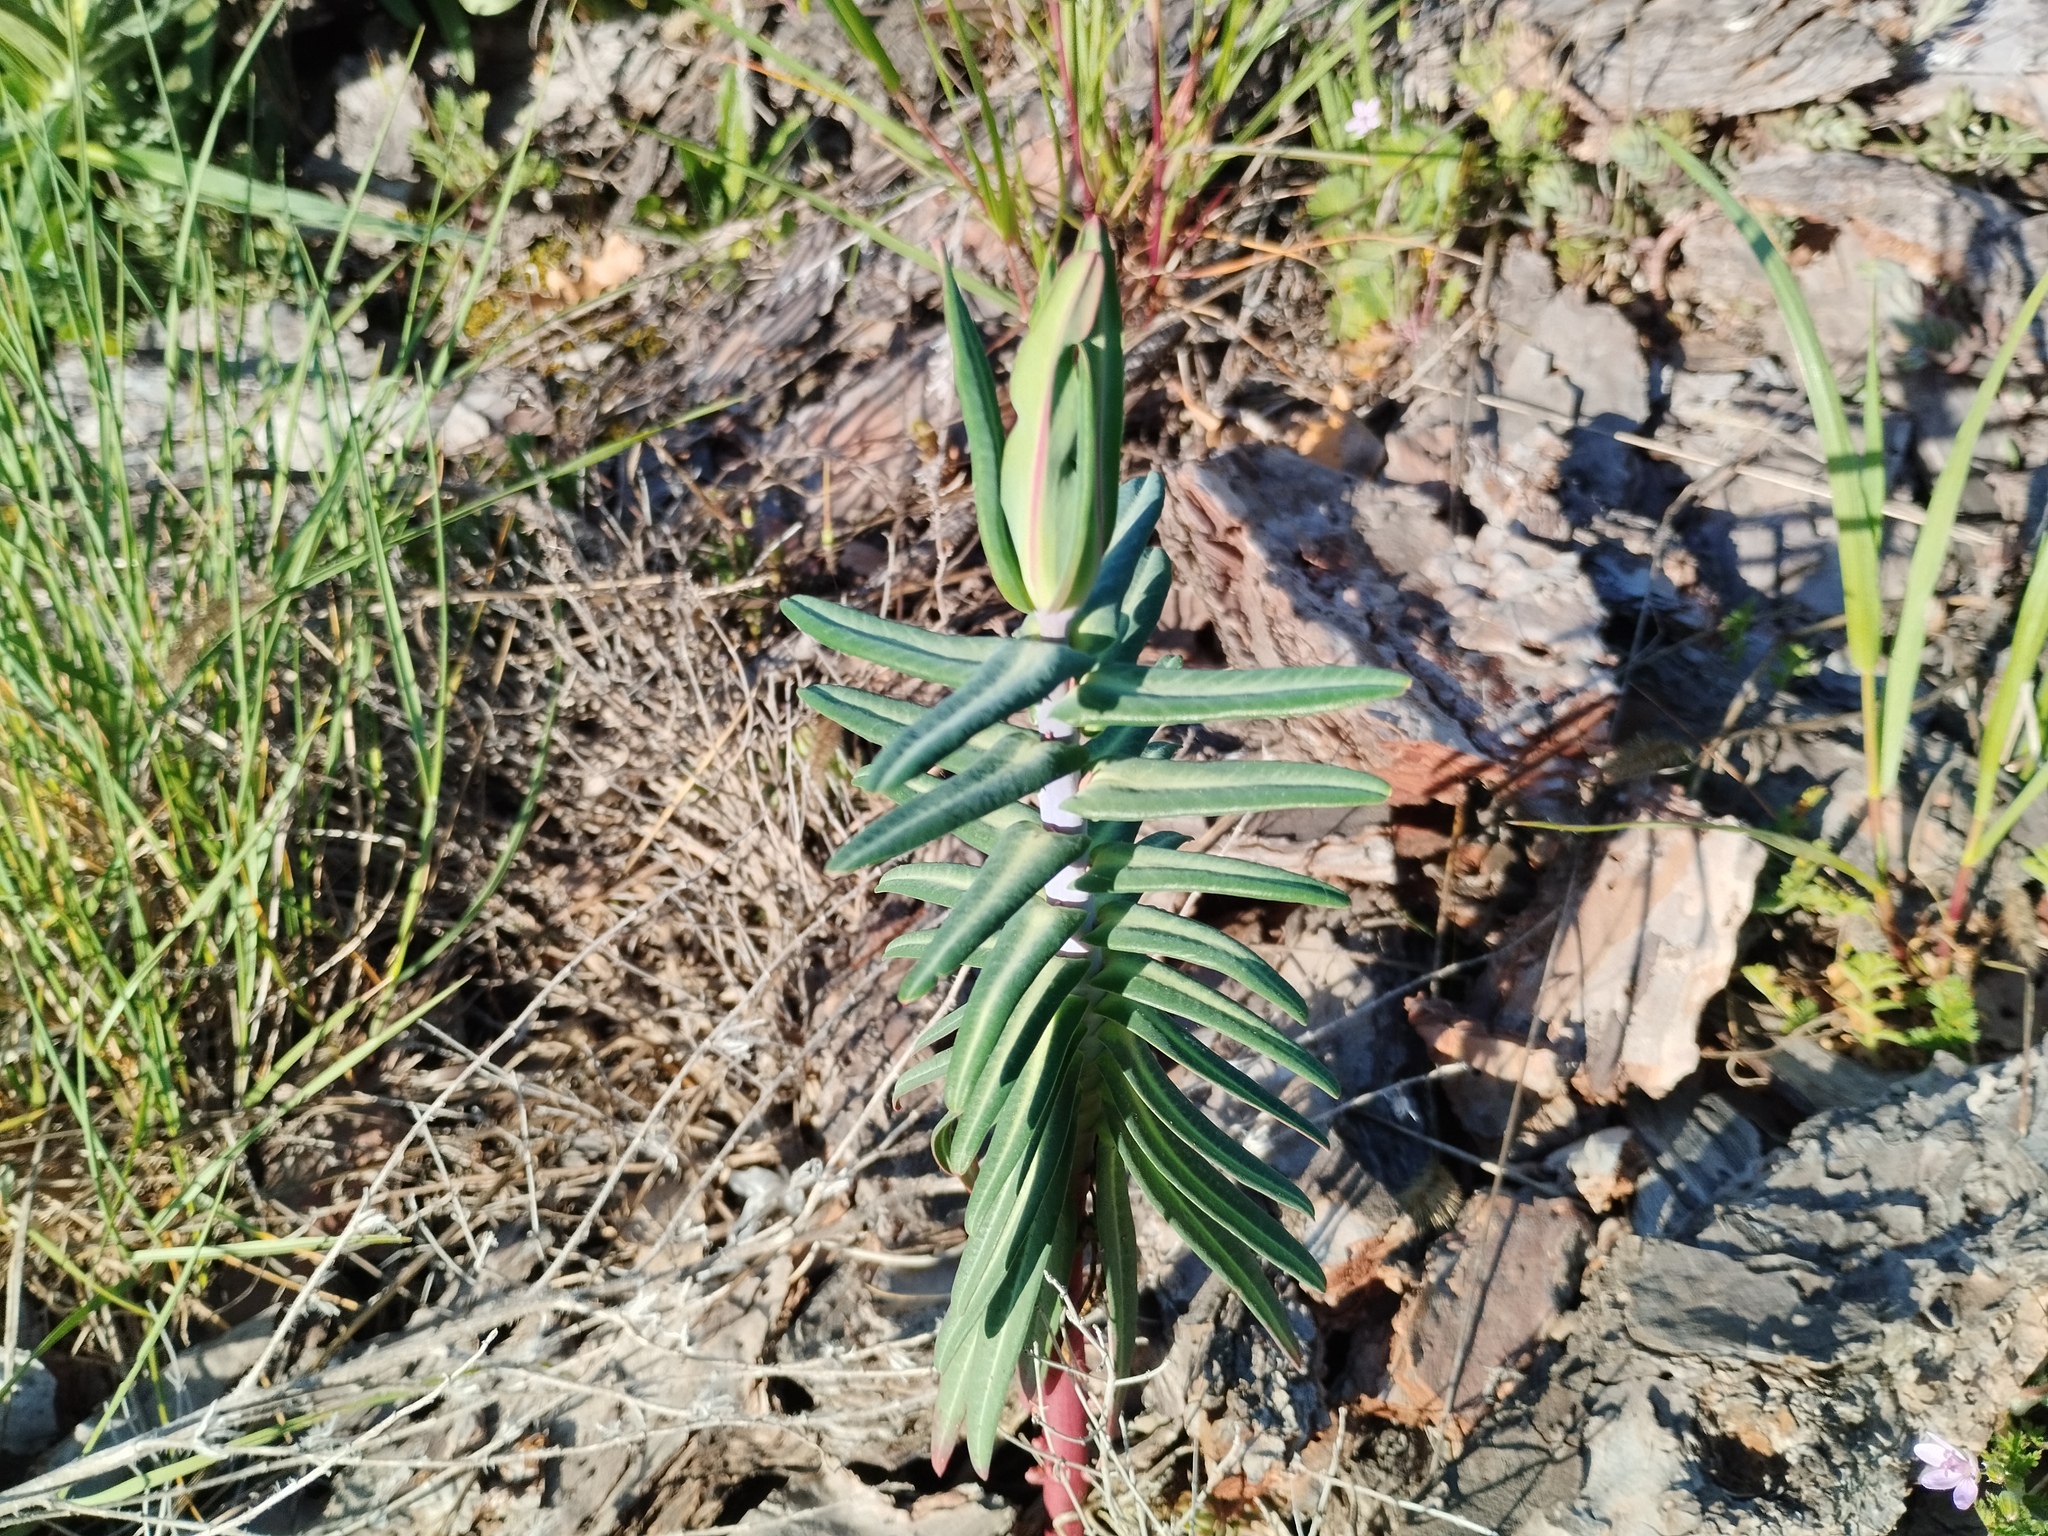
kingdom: Plantae
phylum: Tracheophyta
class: Magnoliopsida
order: Malpighiales
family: Euphorbiaceae
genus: Euphorbia
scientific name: Euphorbia lathyris
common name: Caper spurge
